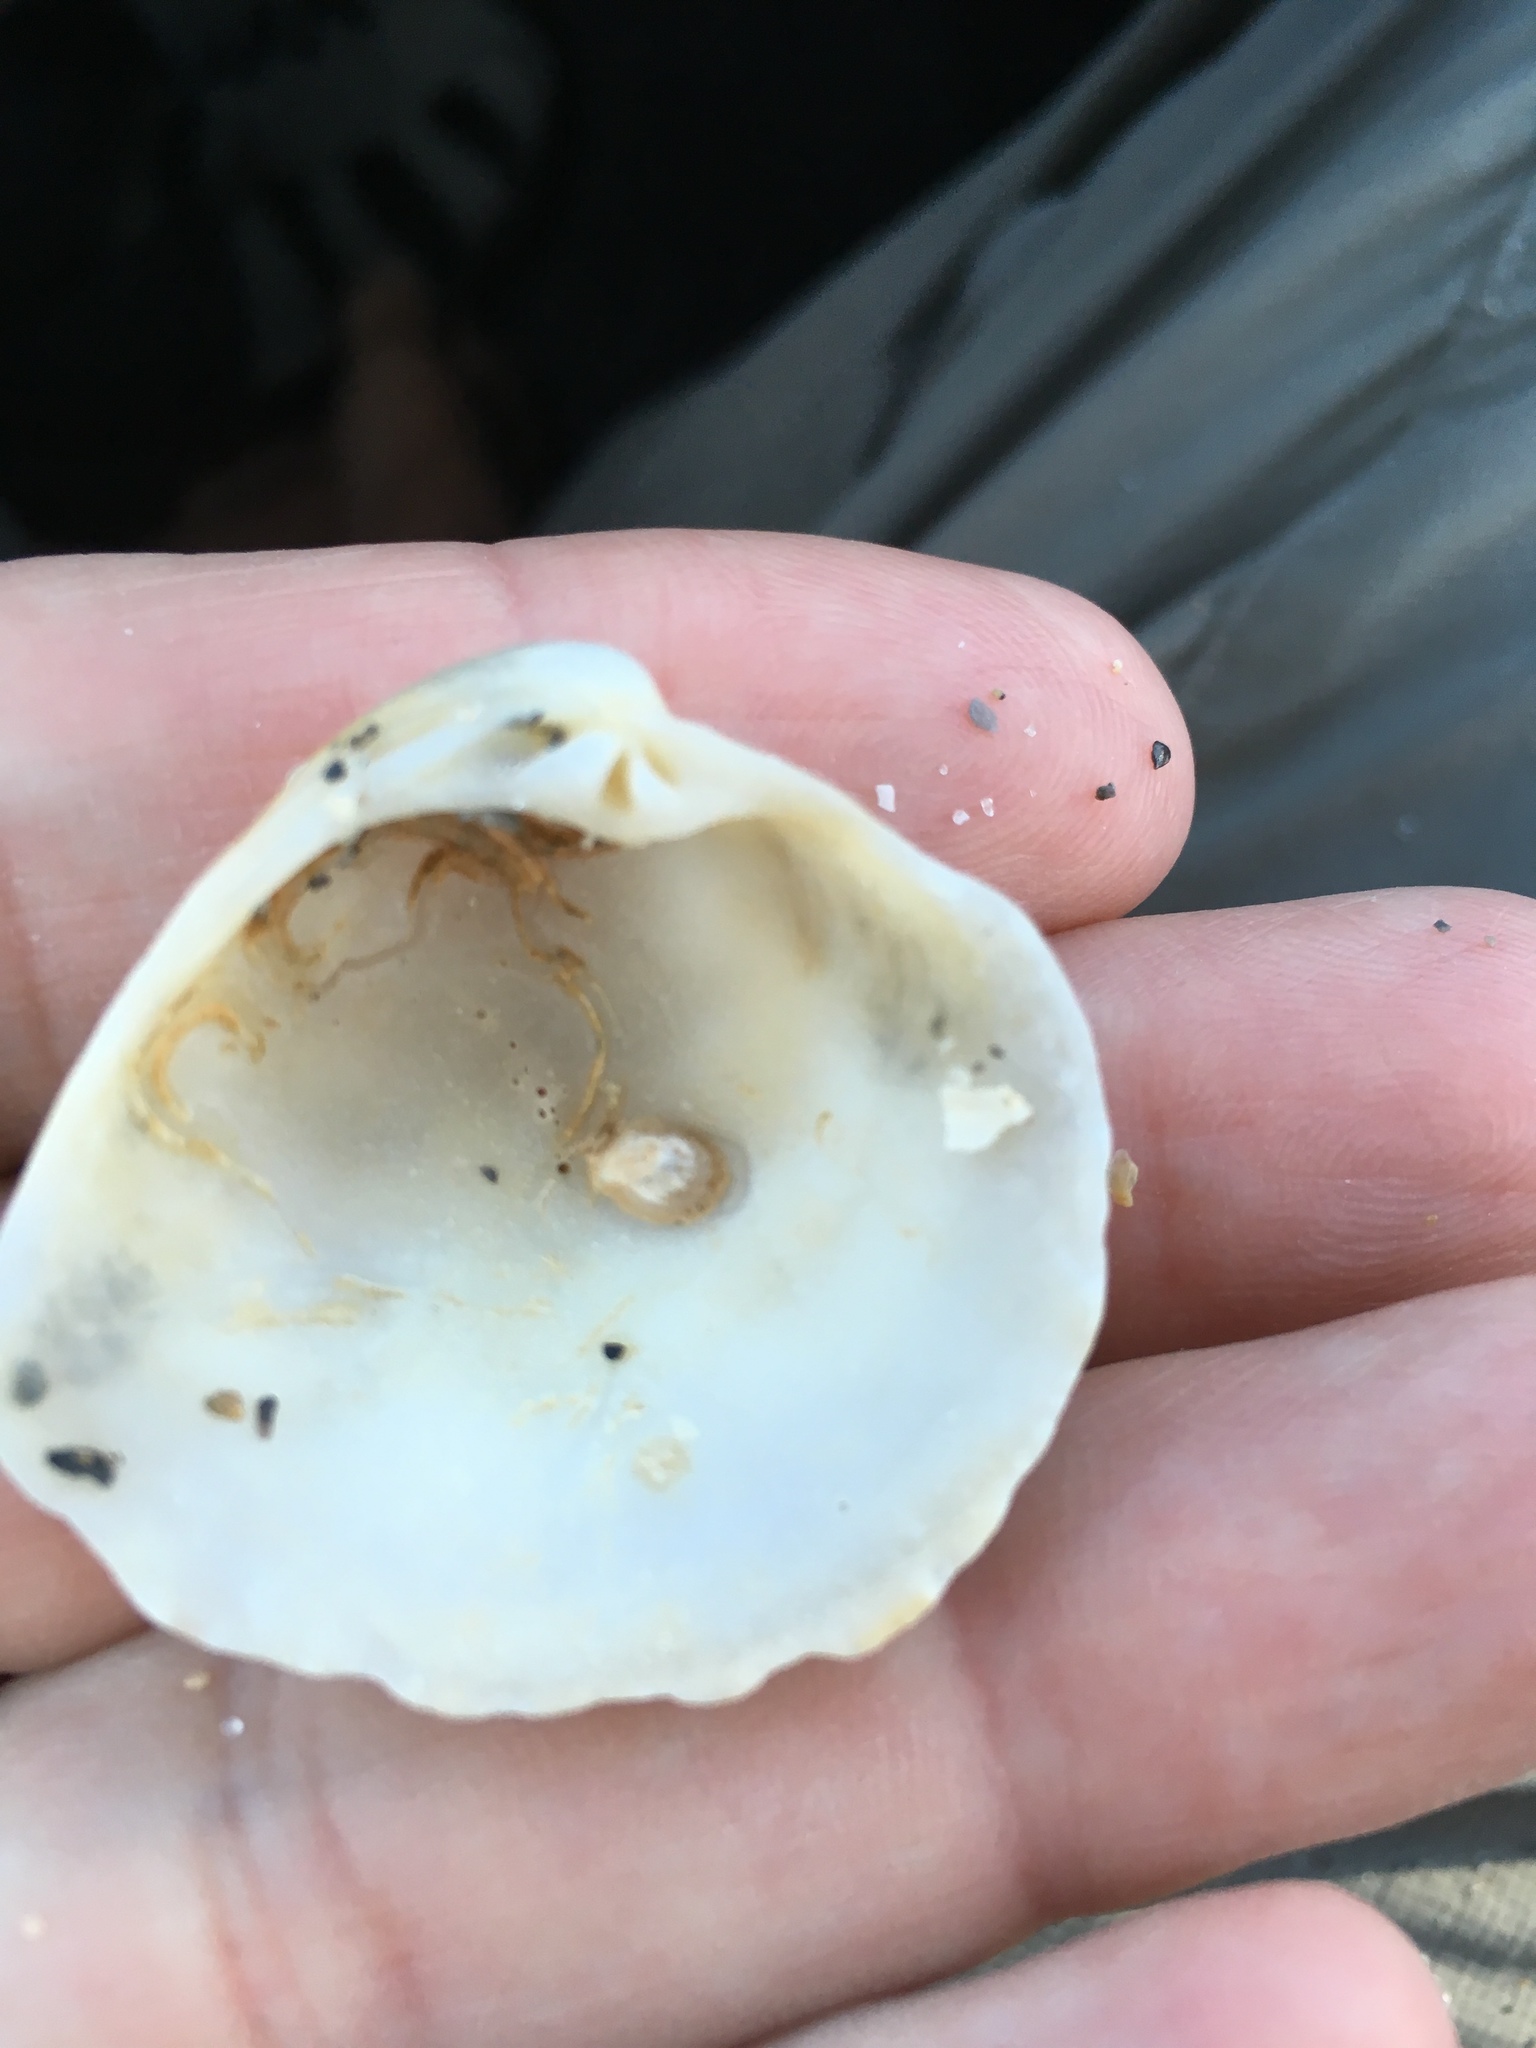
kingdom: Animalia
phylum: Mollusca
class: Bivalvia
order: Venerida
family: Veneridae
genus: Chionopsis
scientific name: Chionopsis intapurpurea
